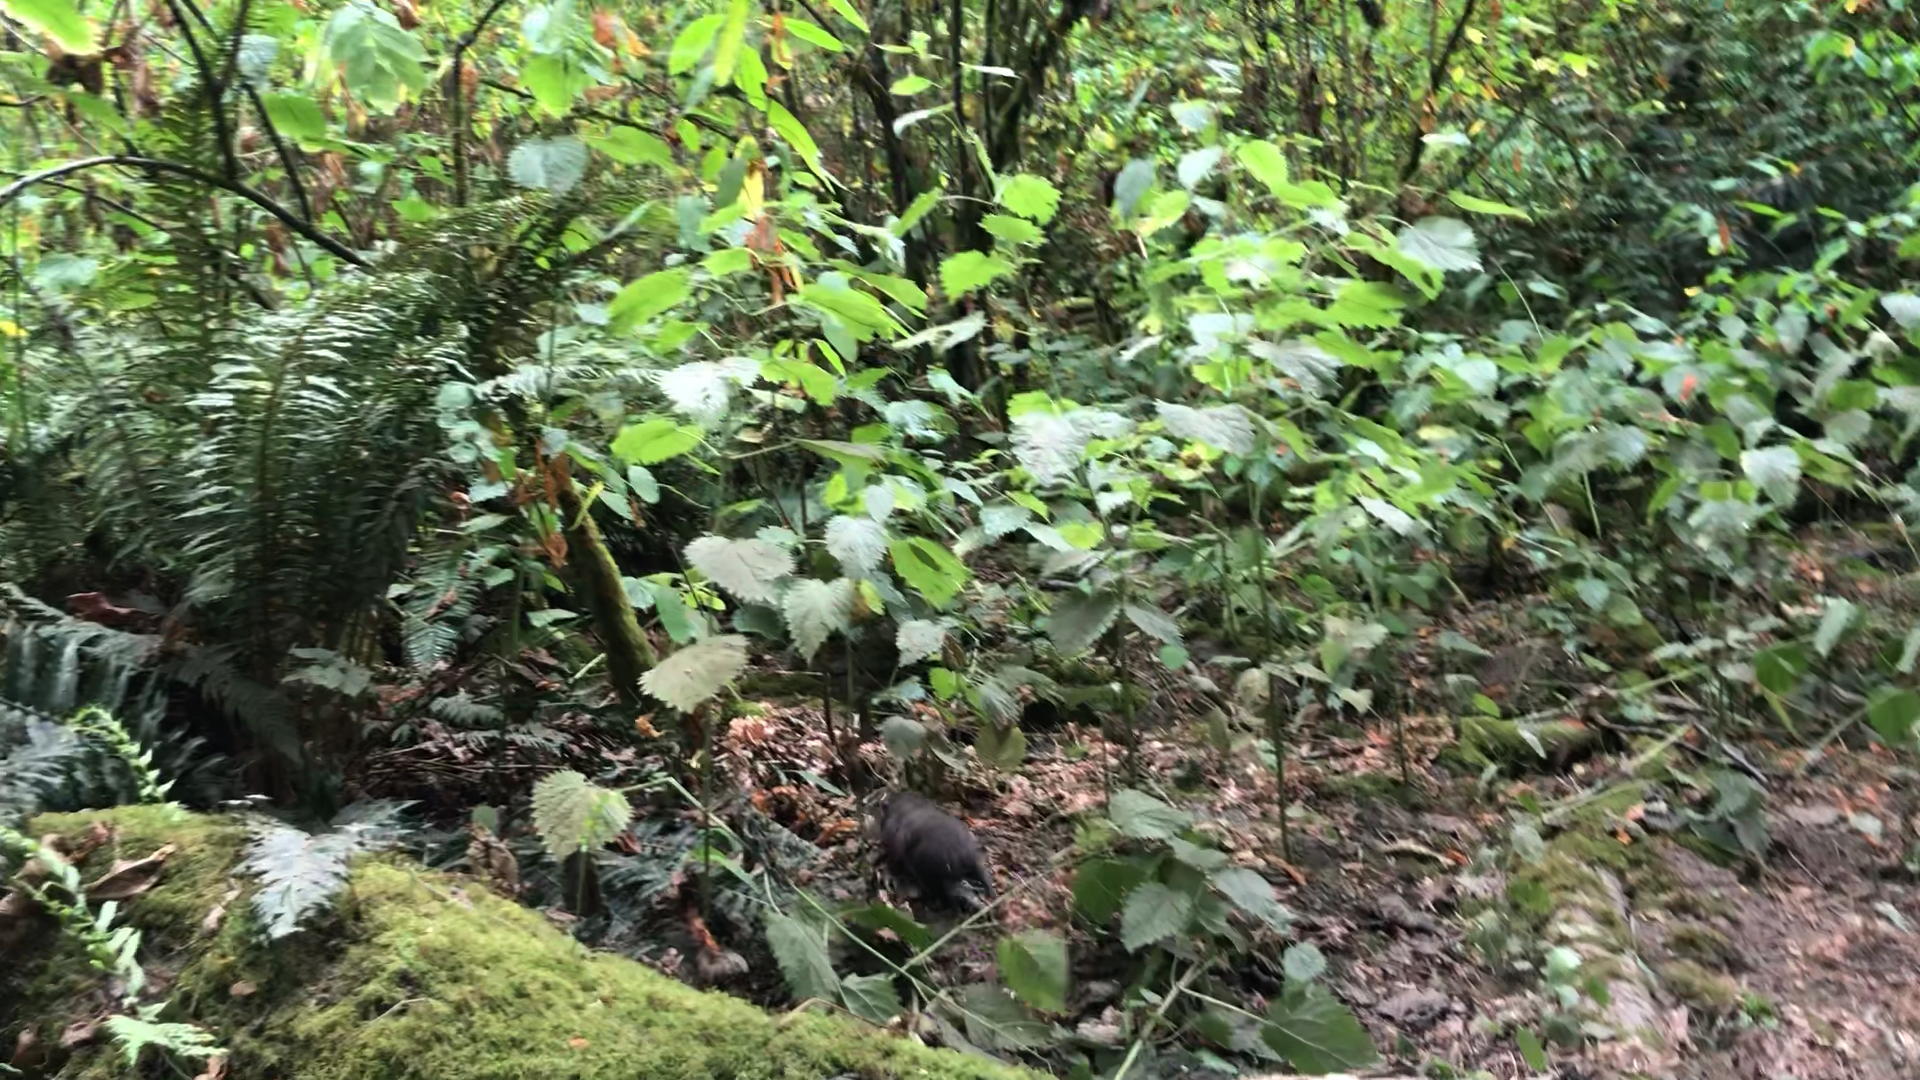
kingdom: Animalia
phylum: Chordata
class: Mammalia
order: Rodentia
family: Aplodontiidae
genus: Aplodontia
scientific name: Aplodontia rufa
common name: Mountain beaver
